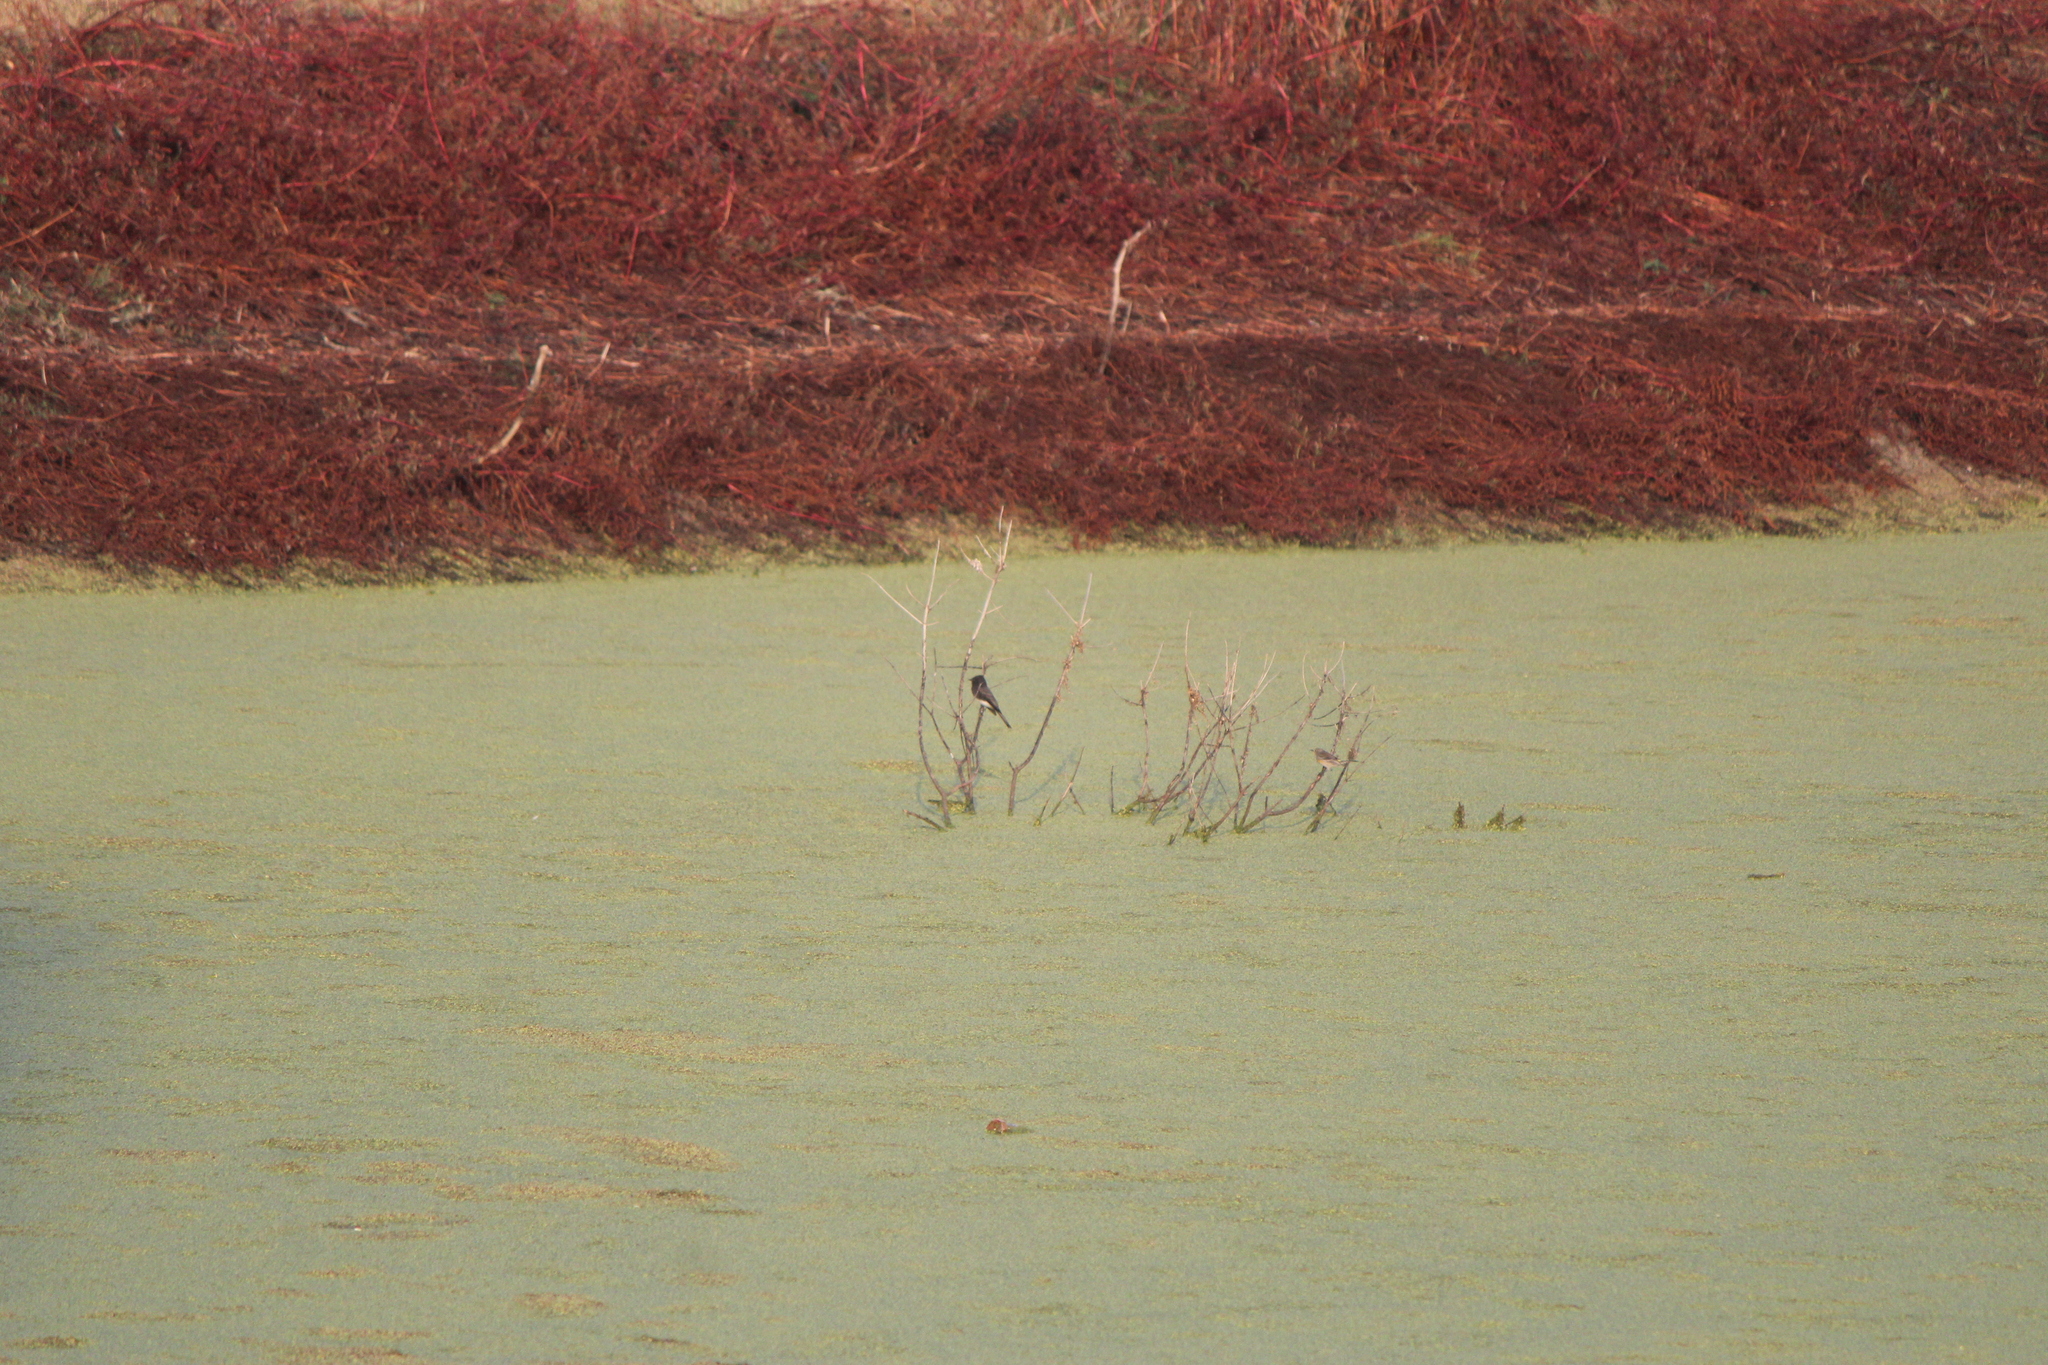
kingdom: Animalia
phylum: Chordata
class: Aves
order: Passeriformes
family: Parulidae
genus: Setophaga
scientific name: Setophaga coronata
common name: Myrtle warbler
